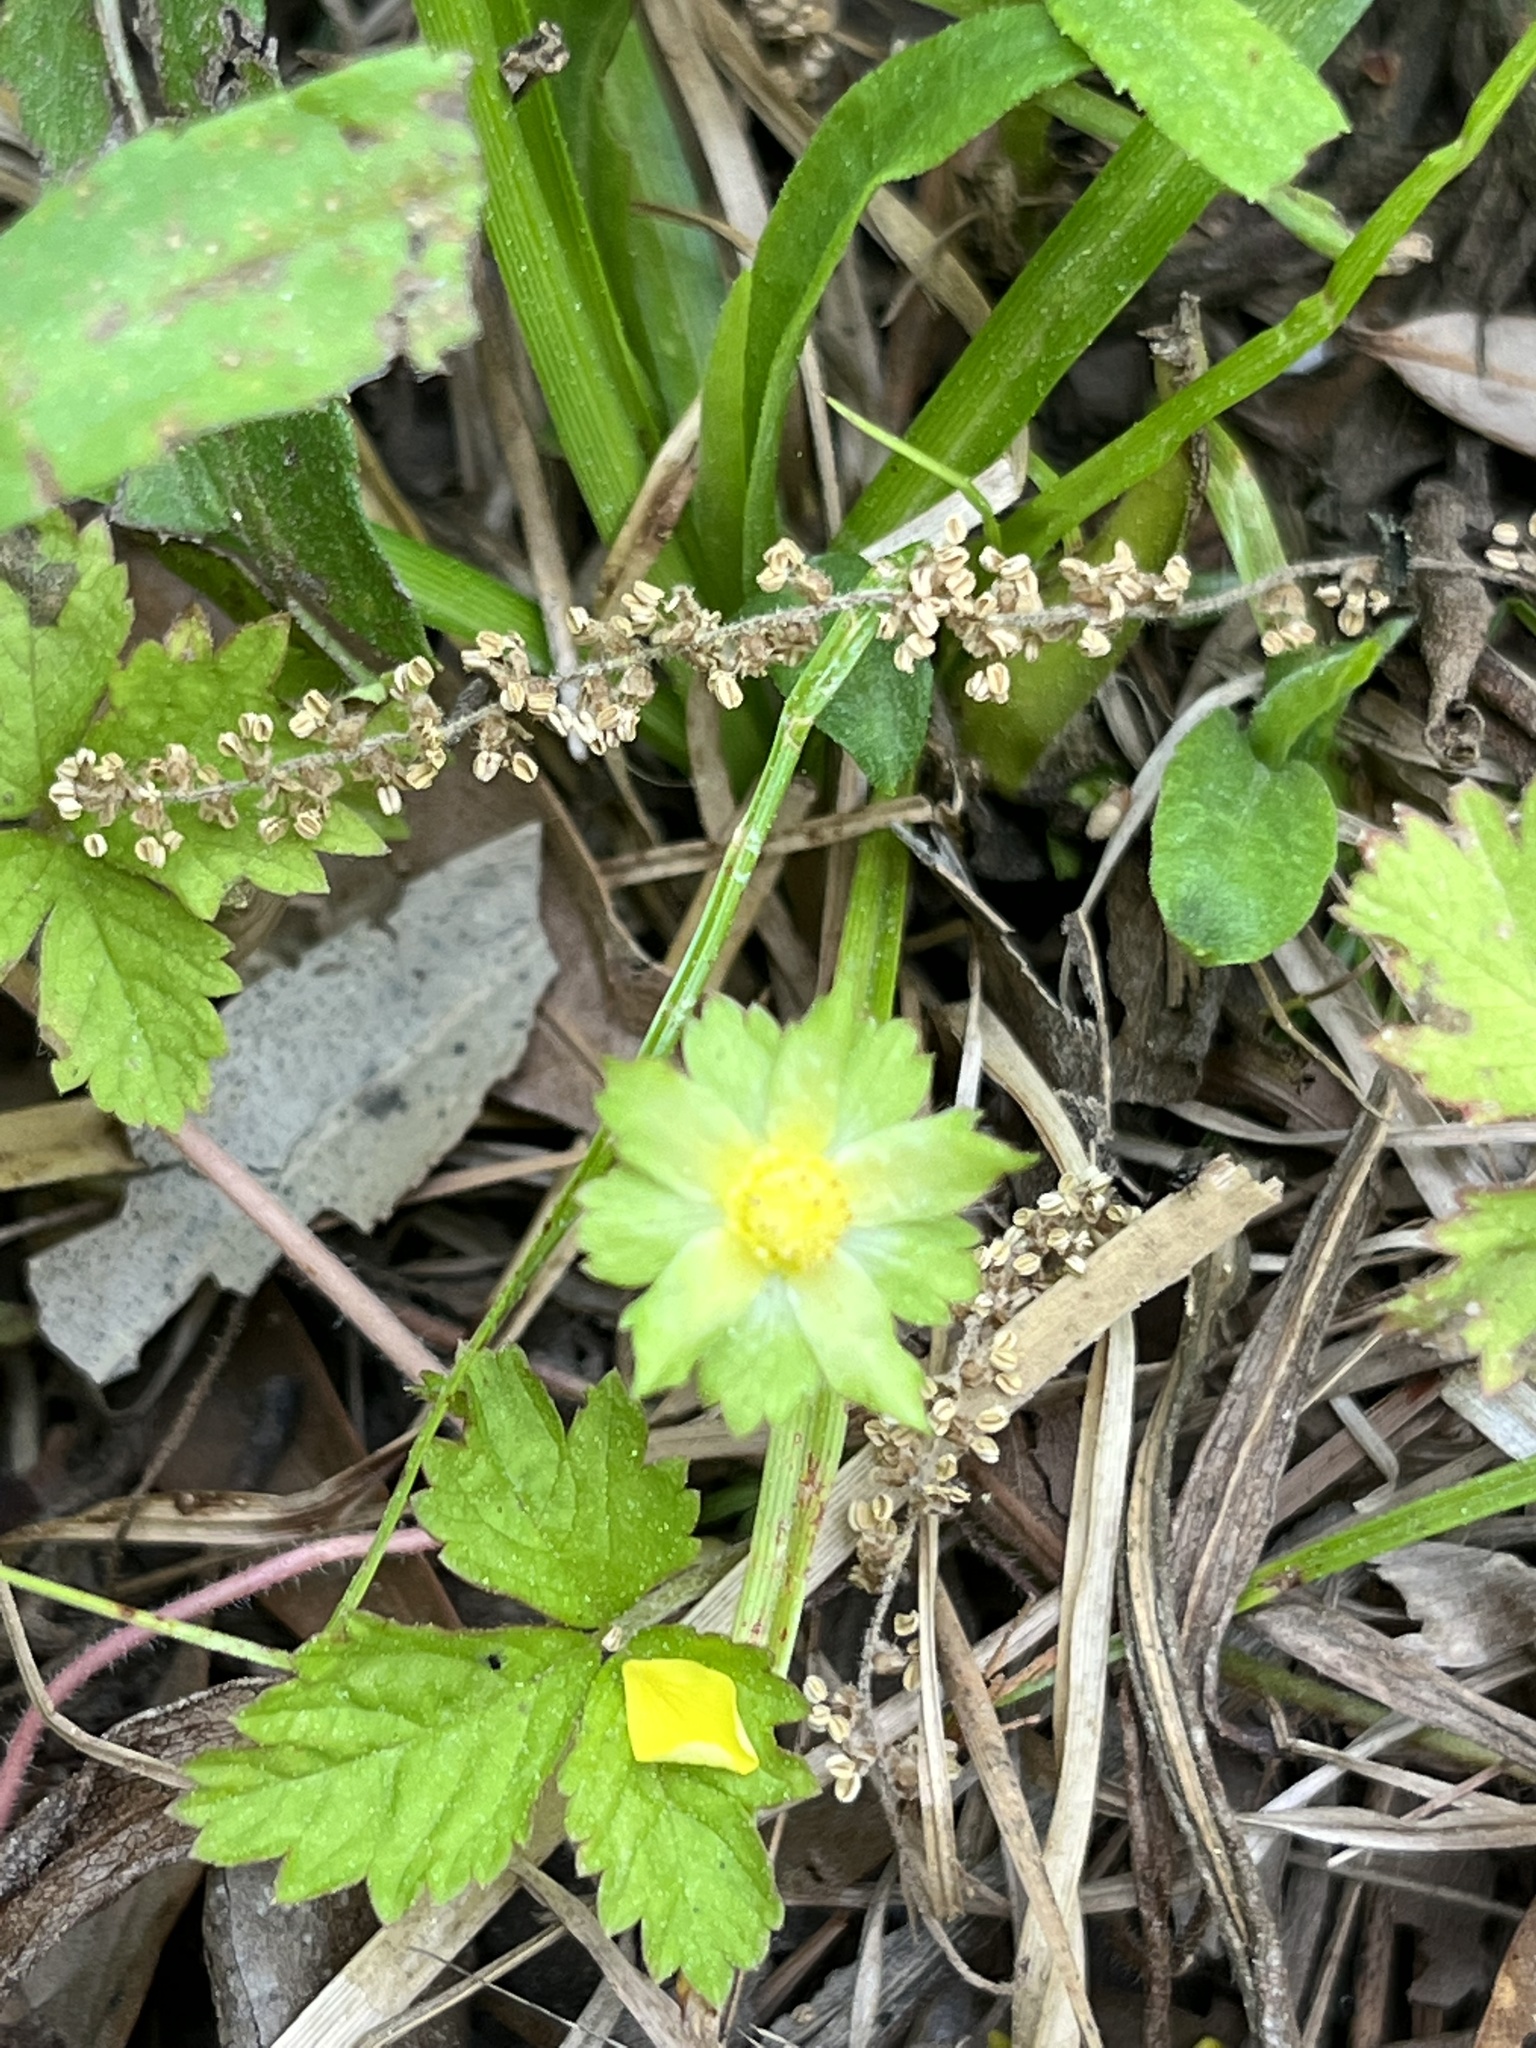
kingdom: Plantae
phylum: Tracheophyta
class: Magnoliopsida
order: Rosales
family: Rosaceae
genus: Potentilla
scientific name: Potentilla indica
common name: Yellow-flowered strawberry
